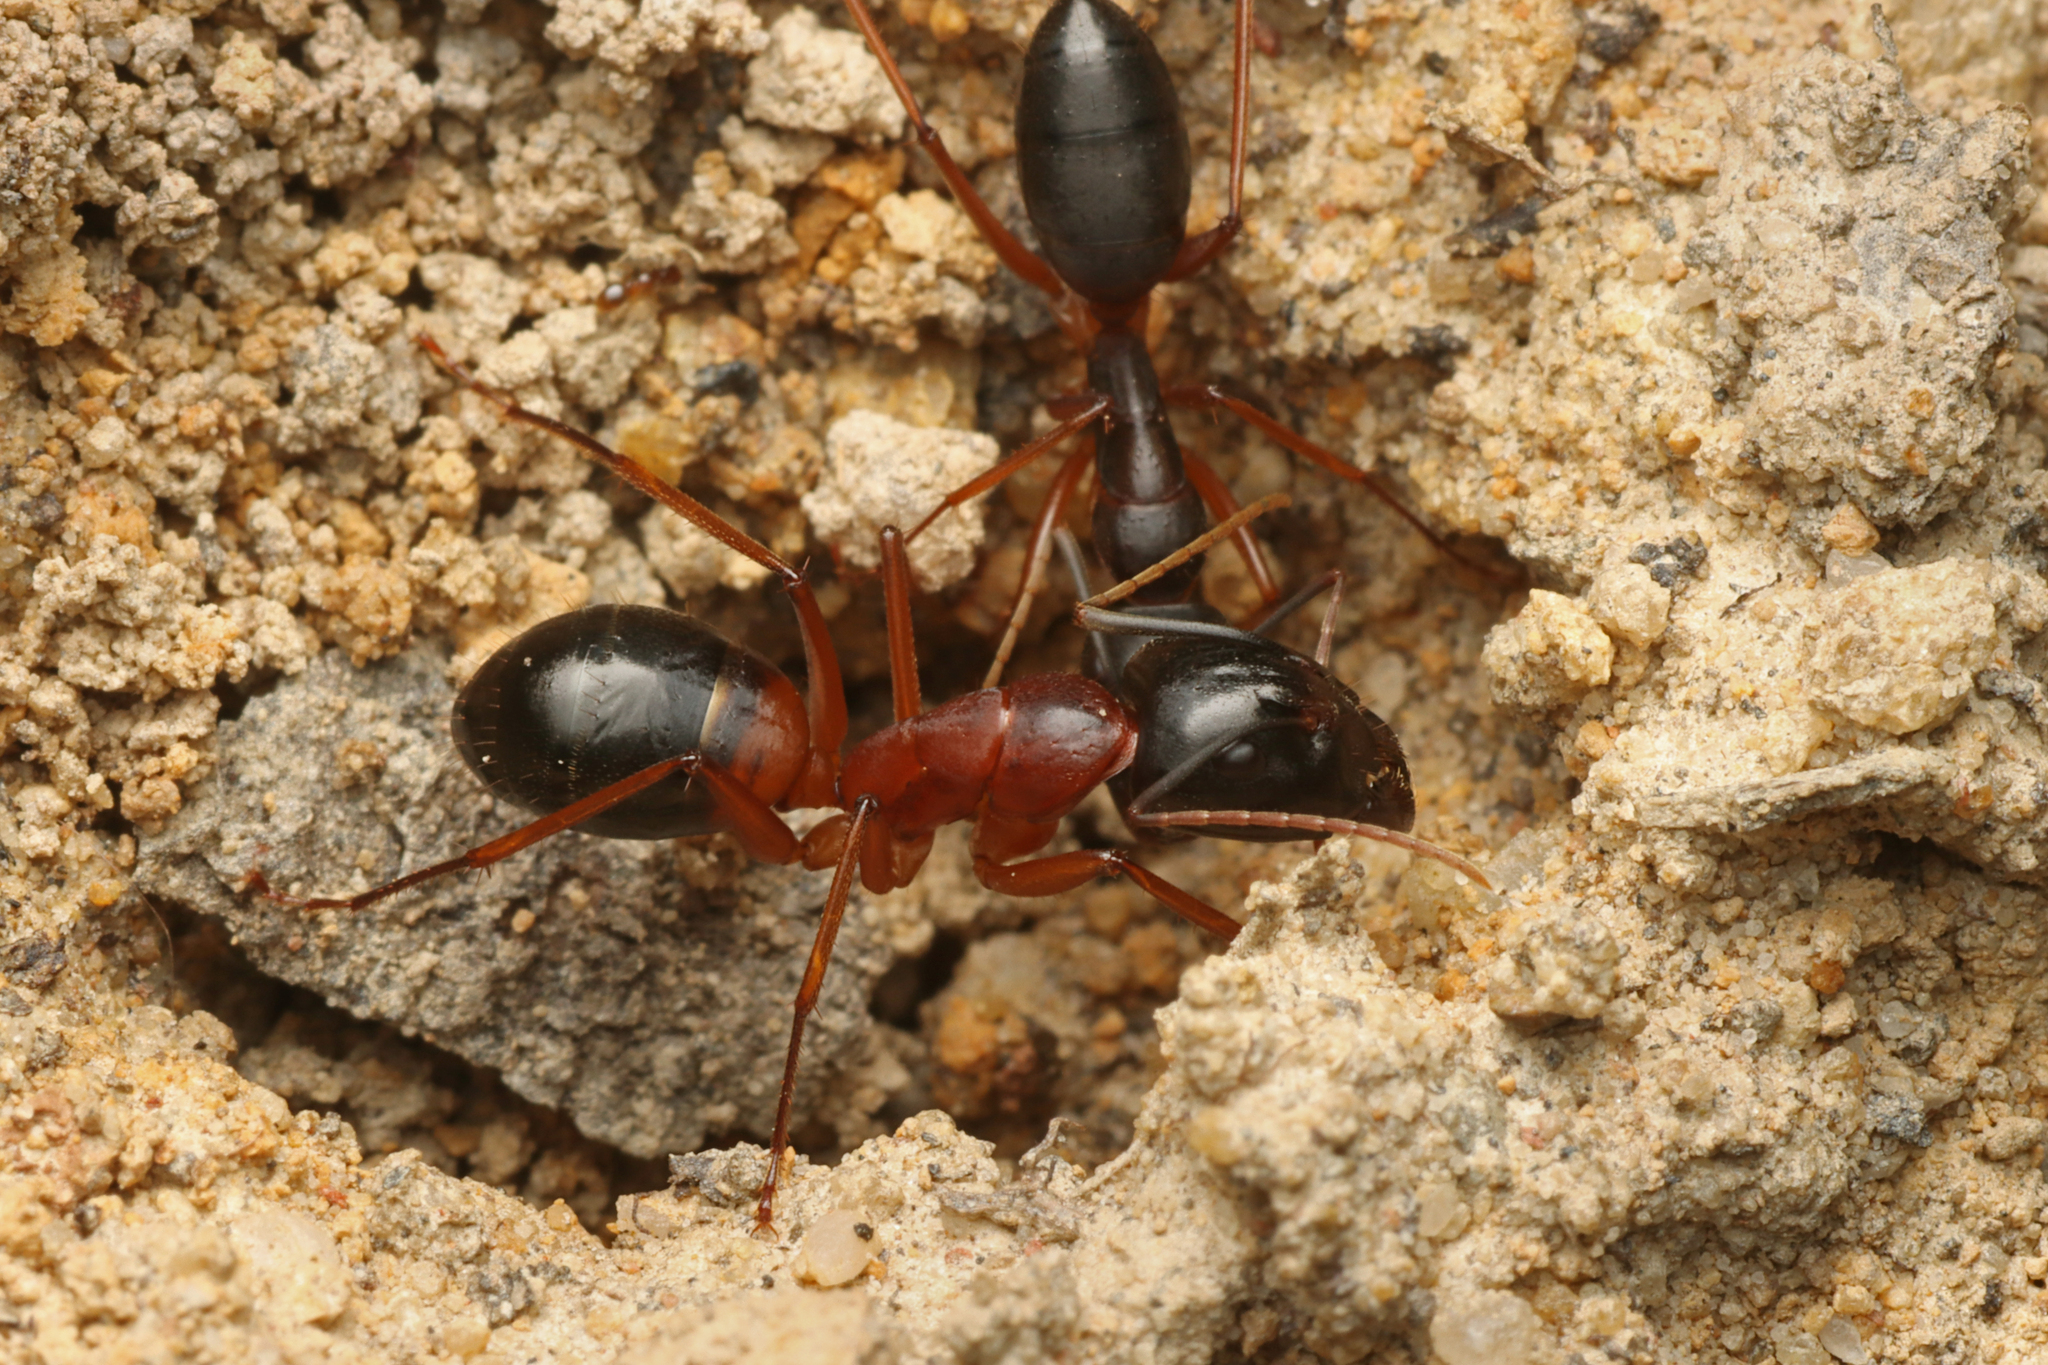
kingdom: Animalia
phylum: Arthropoda
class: Insecta
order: Hymenoptera
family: Formicidae
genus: Camponotus
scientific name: Camponotus consobrinus
